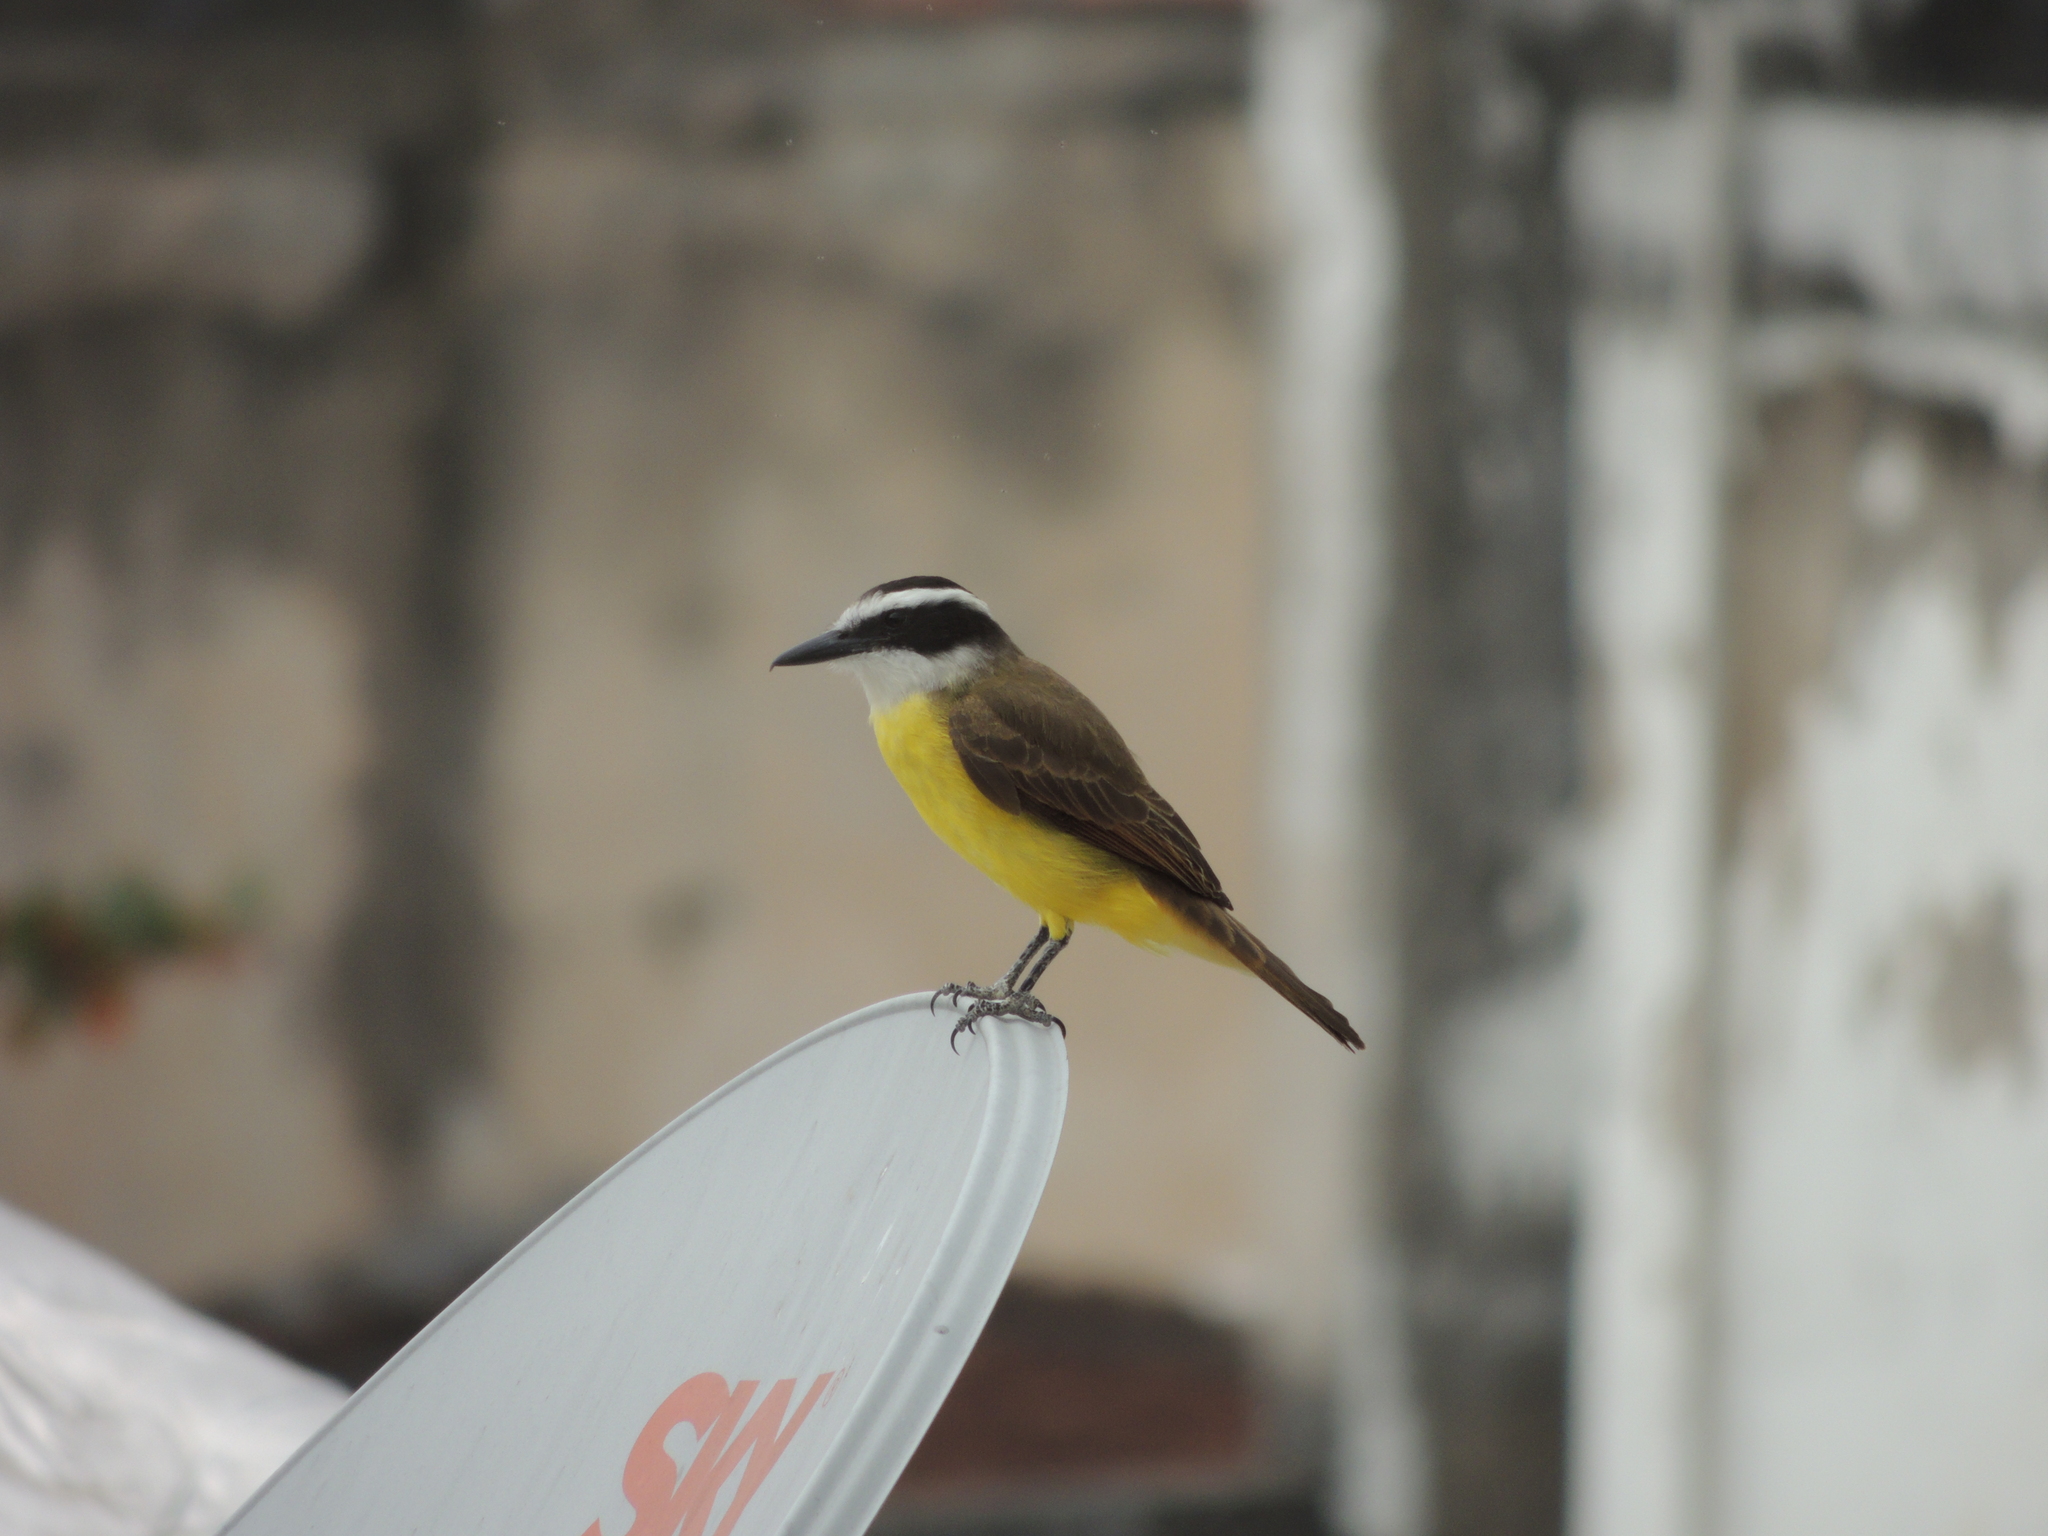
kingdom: Animalia
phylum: Chordata
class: Aves
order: Passeriformes
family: Tyrannidae
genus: Pitangus
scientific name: Pitangus sulphuratus
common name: Great kiskadee
